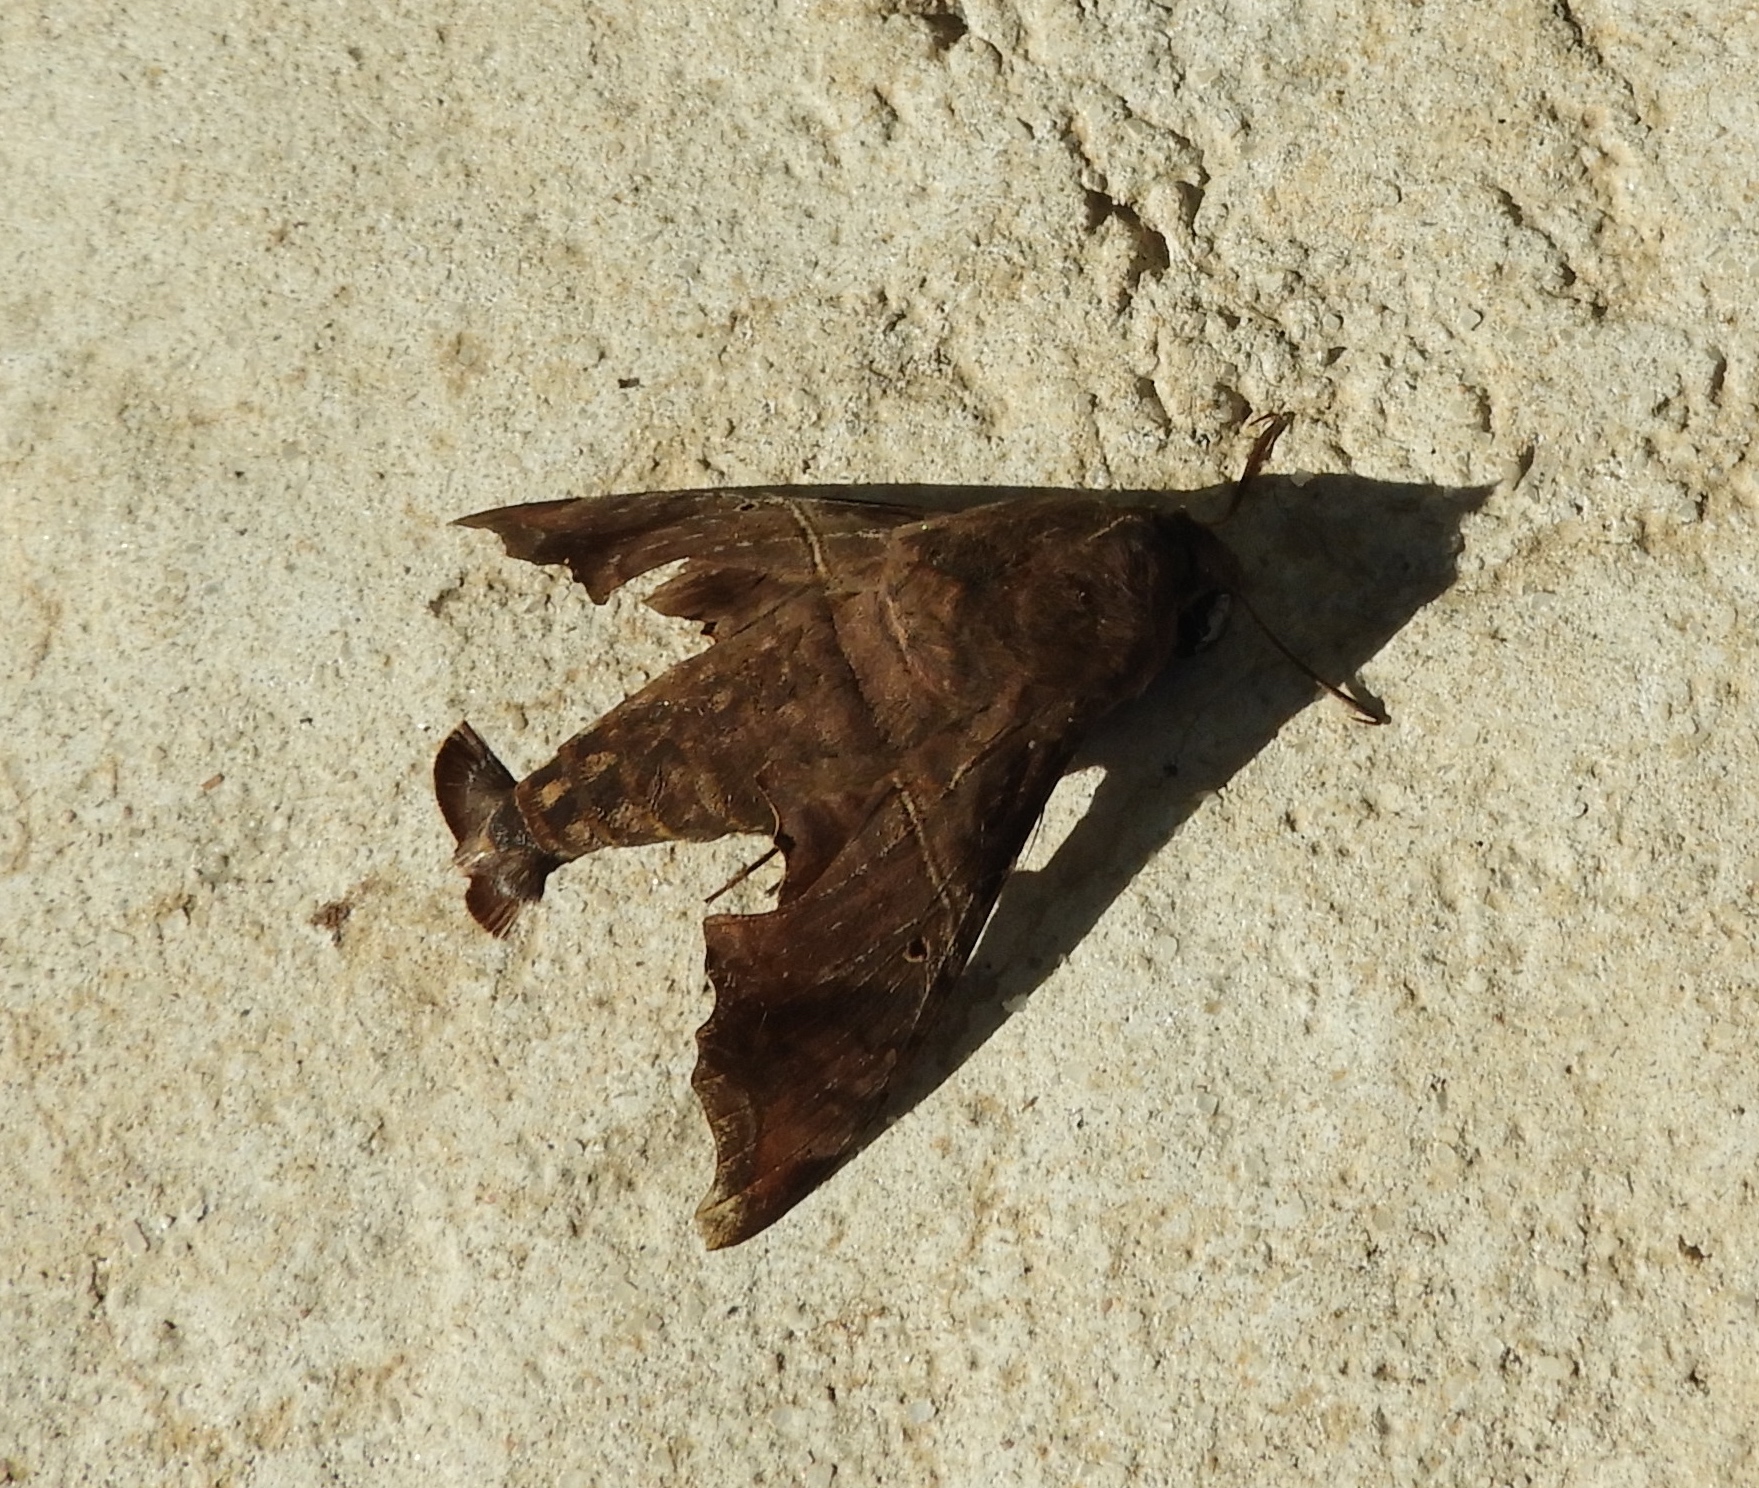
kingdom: Animalia
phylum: Arthropoda
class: Insecta
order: Lepidoptera
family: Sphingidae
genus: Enyo
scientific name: Enyo ocypete
